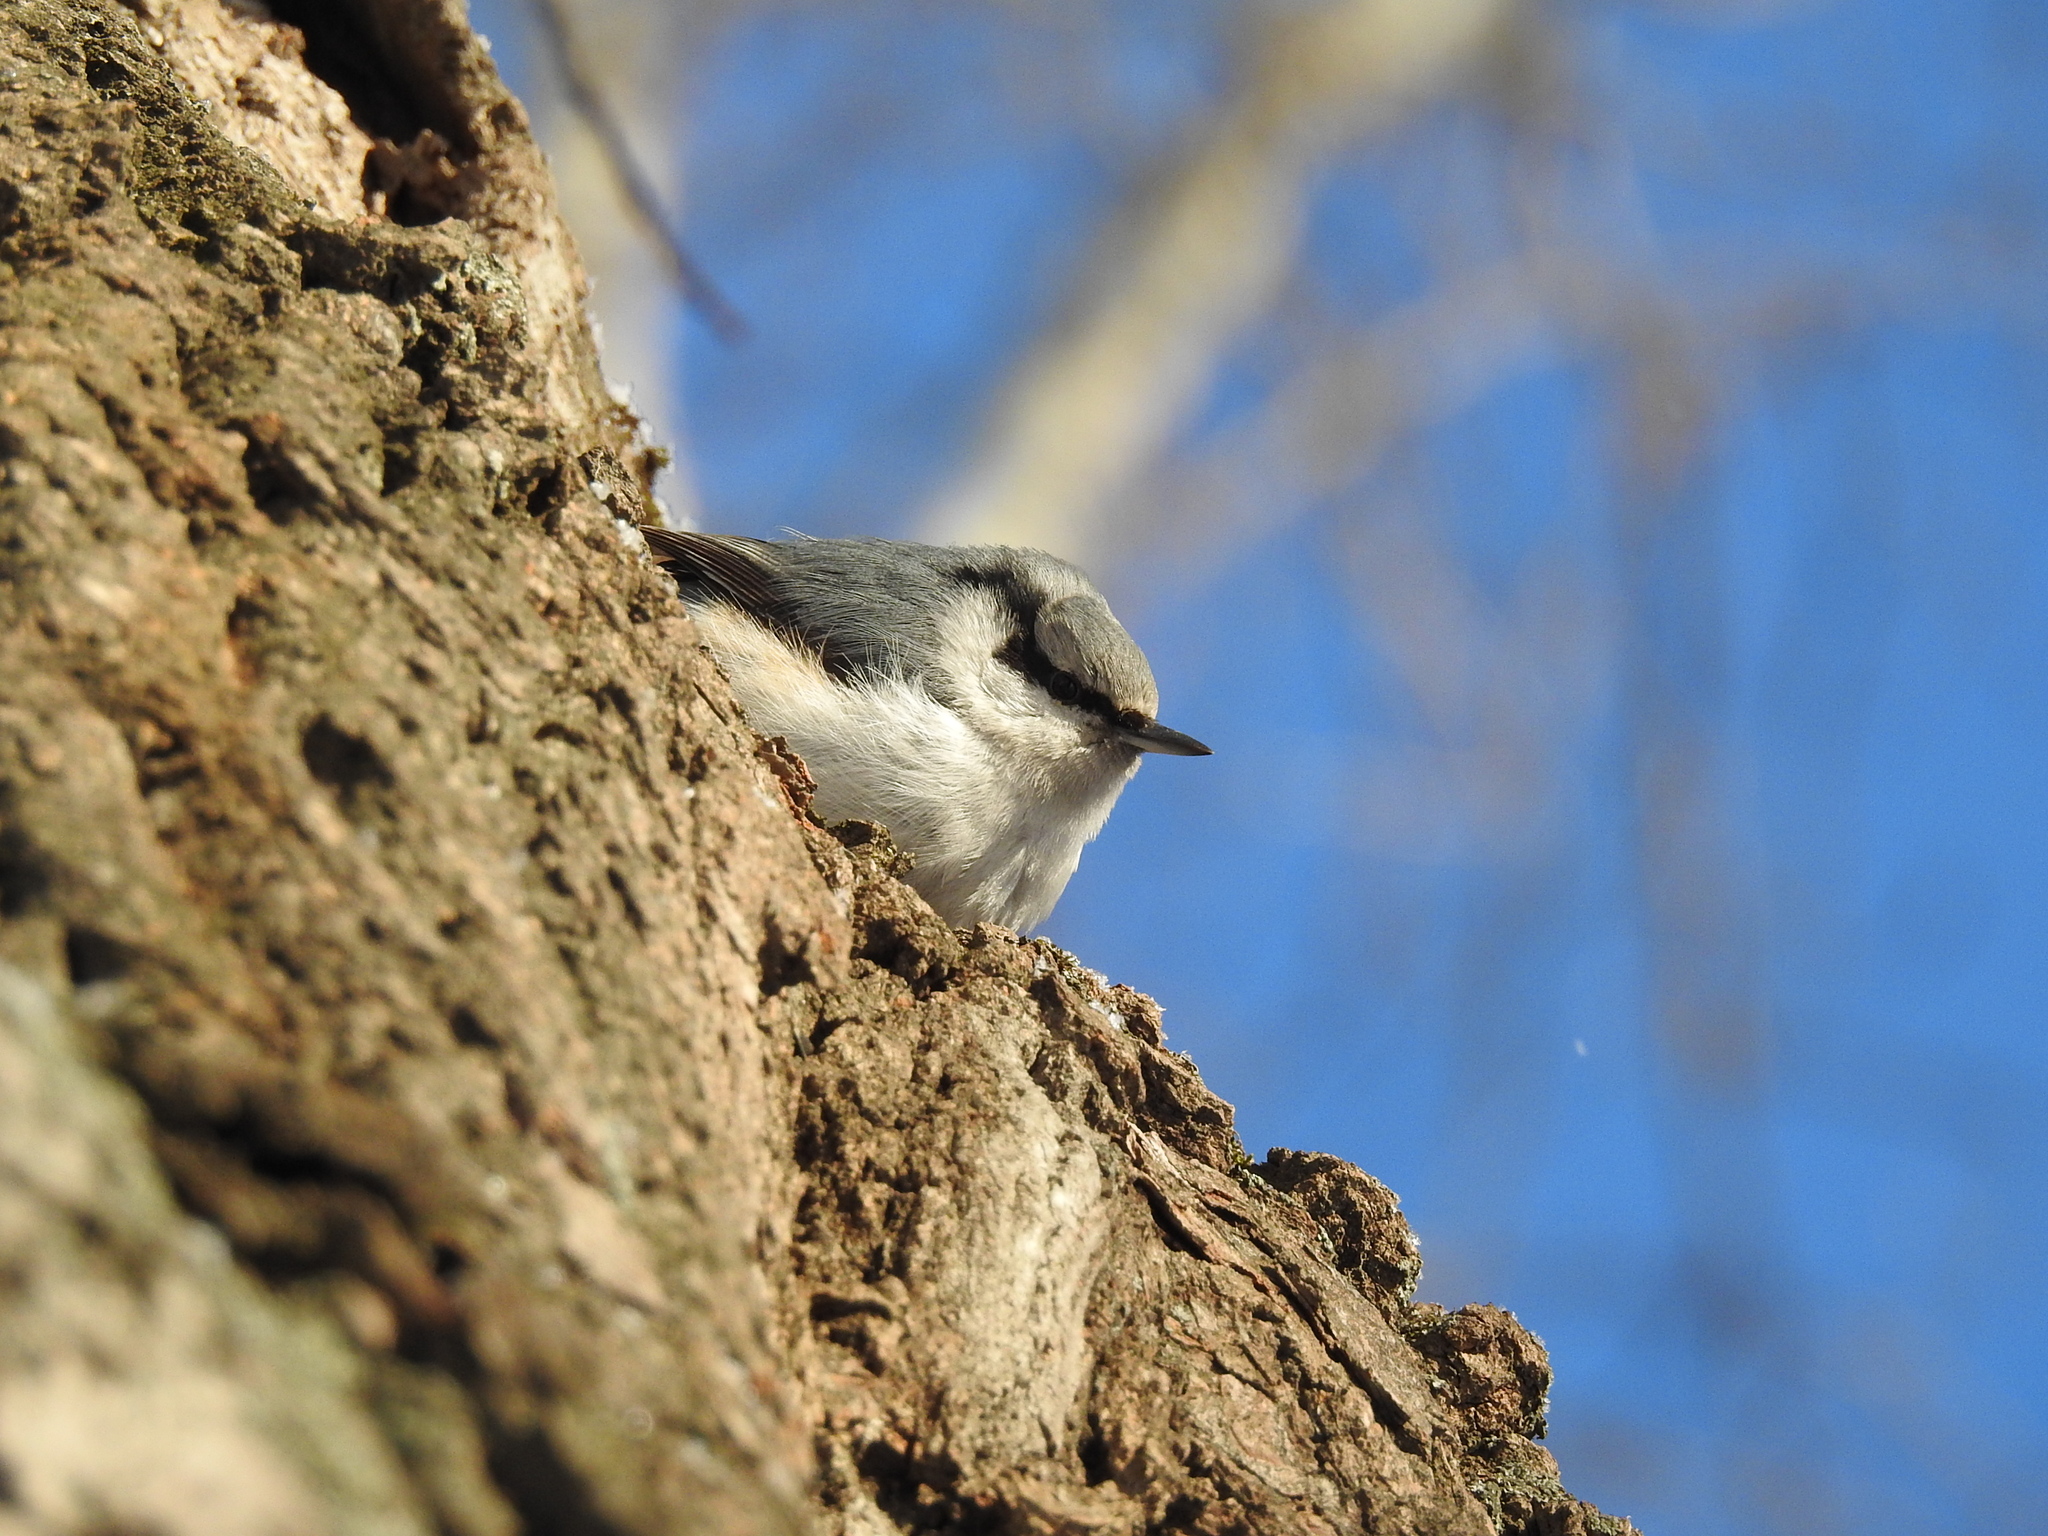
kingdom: Animalia
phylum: Chordata
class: Aves
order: Passeriformes
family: Sittidae
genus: Sitta
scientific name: Sitta europaea
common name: Eurasian nuthatch
